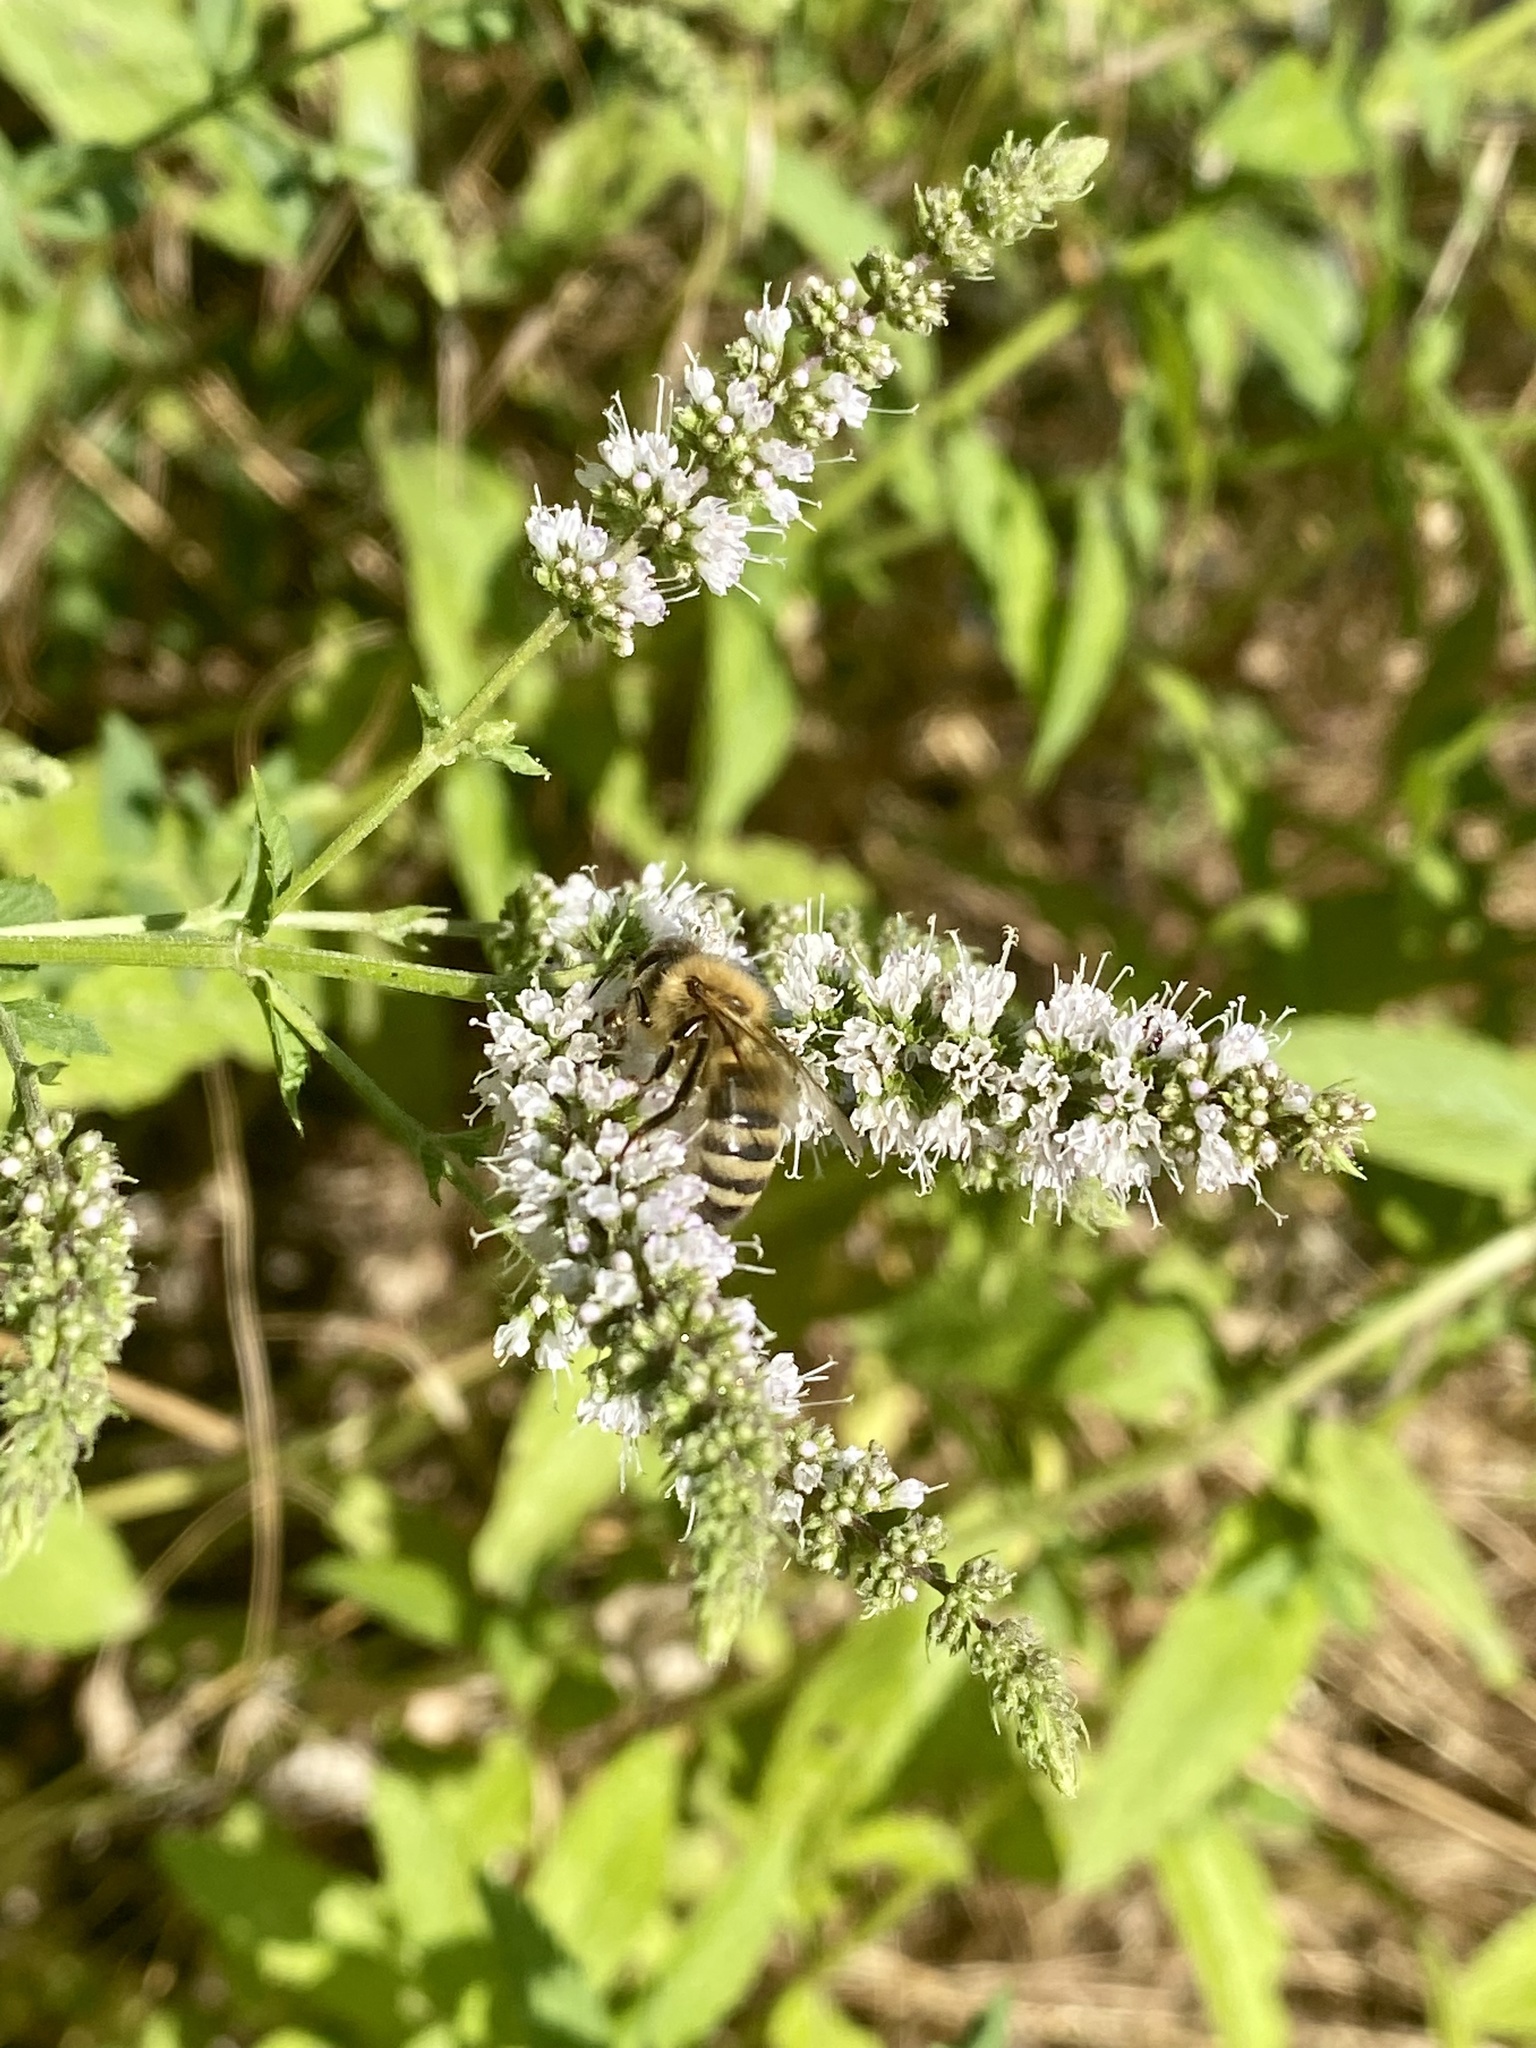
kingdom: Animalia
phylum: Arthropoda
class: Insecta
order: Hymenoptera
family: Apidae
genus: Apis
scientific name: Apis mellifera
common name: Honey bee
